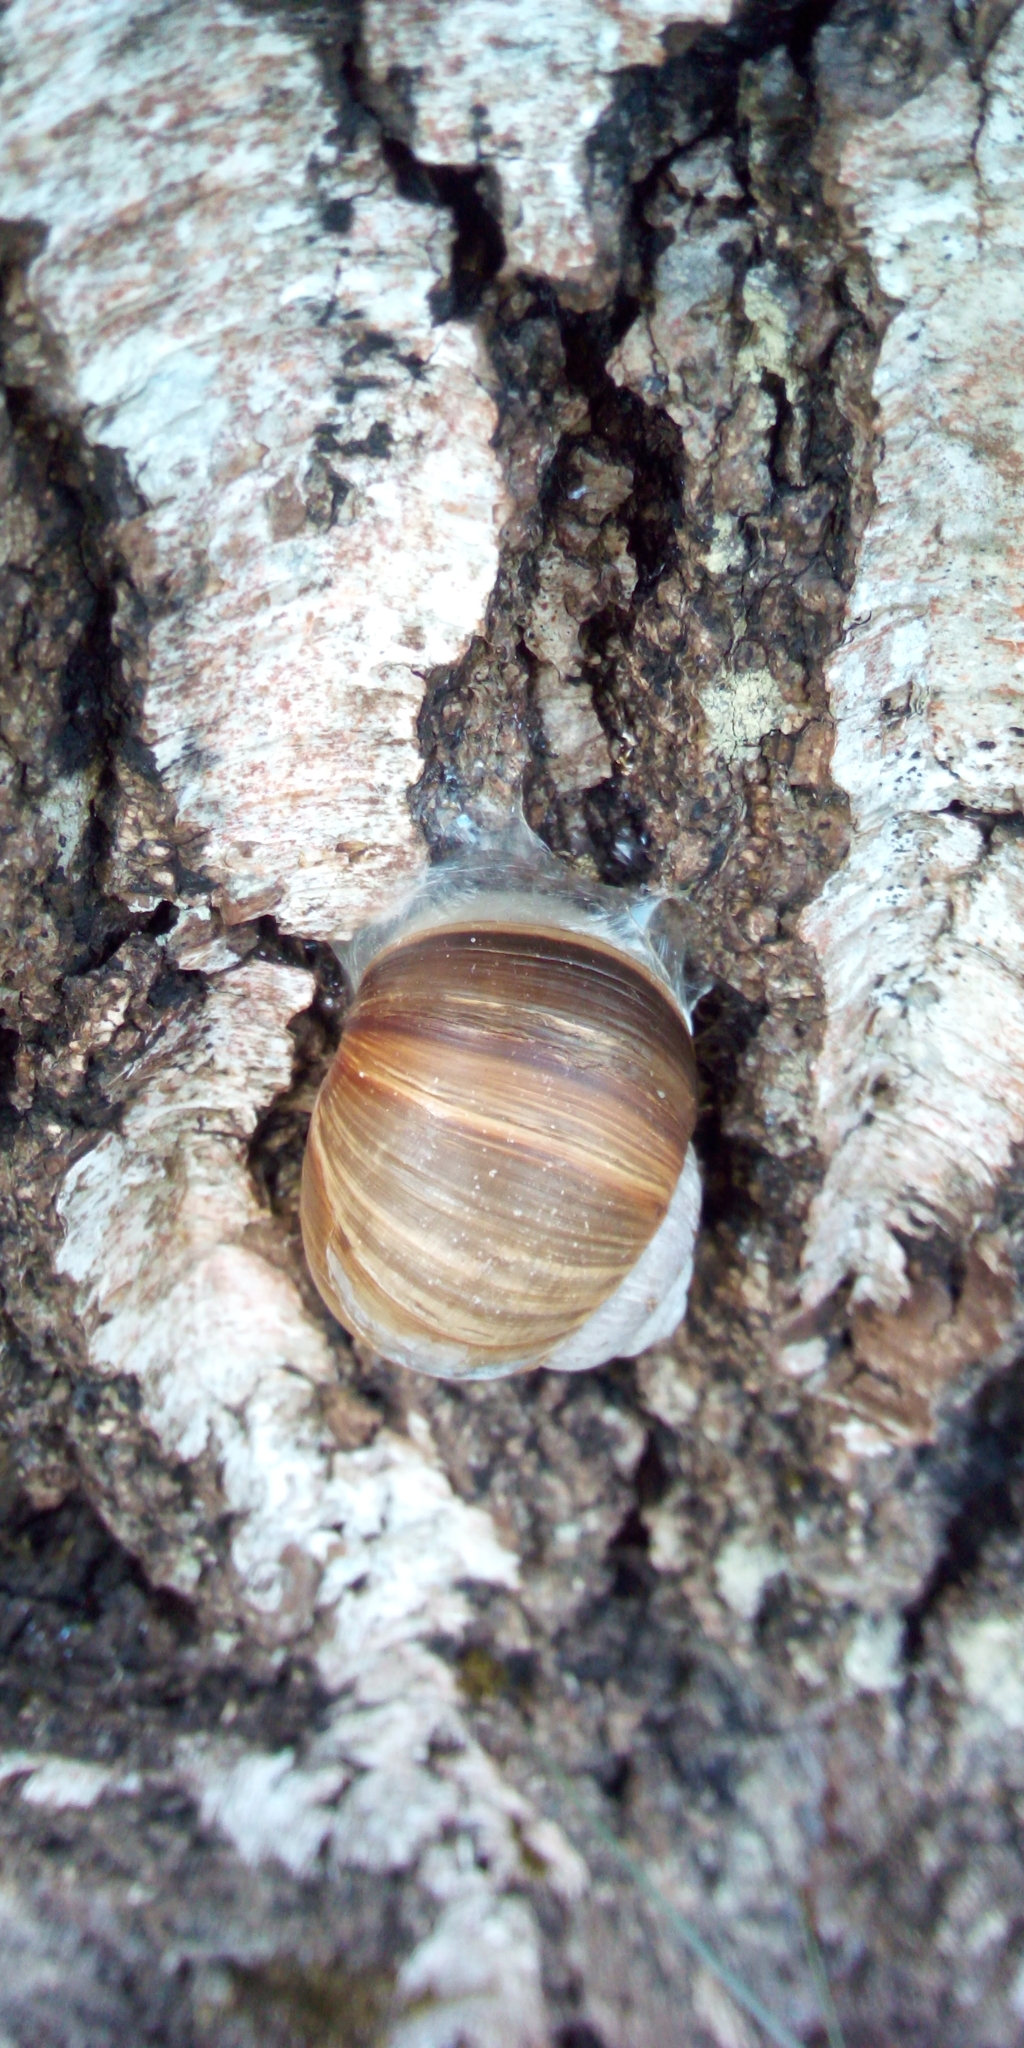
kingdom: Animalia
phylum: Mollusca
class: Gastropoda
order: Stylommatophora
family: Helicidae
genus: Helix
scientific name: Helix pomatia
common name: Roman snail
